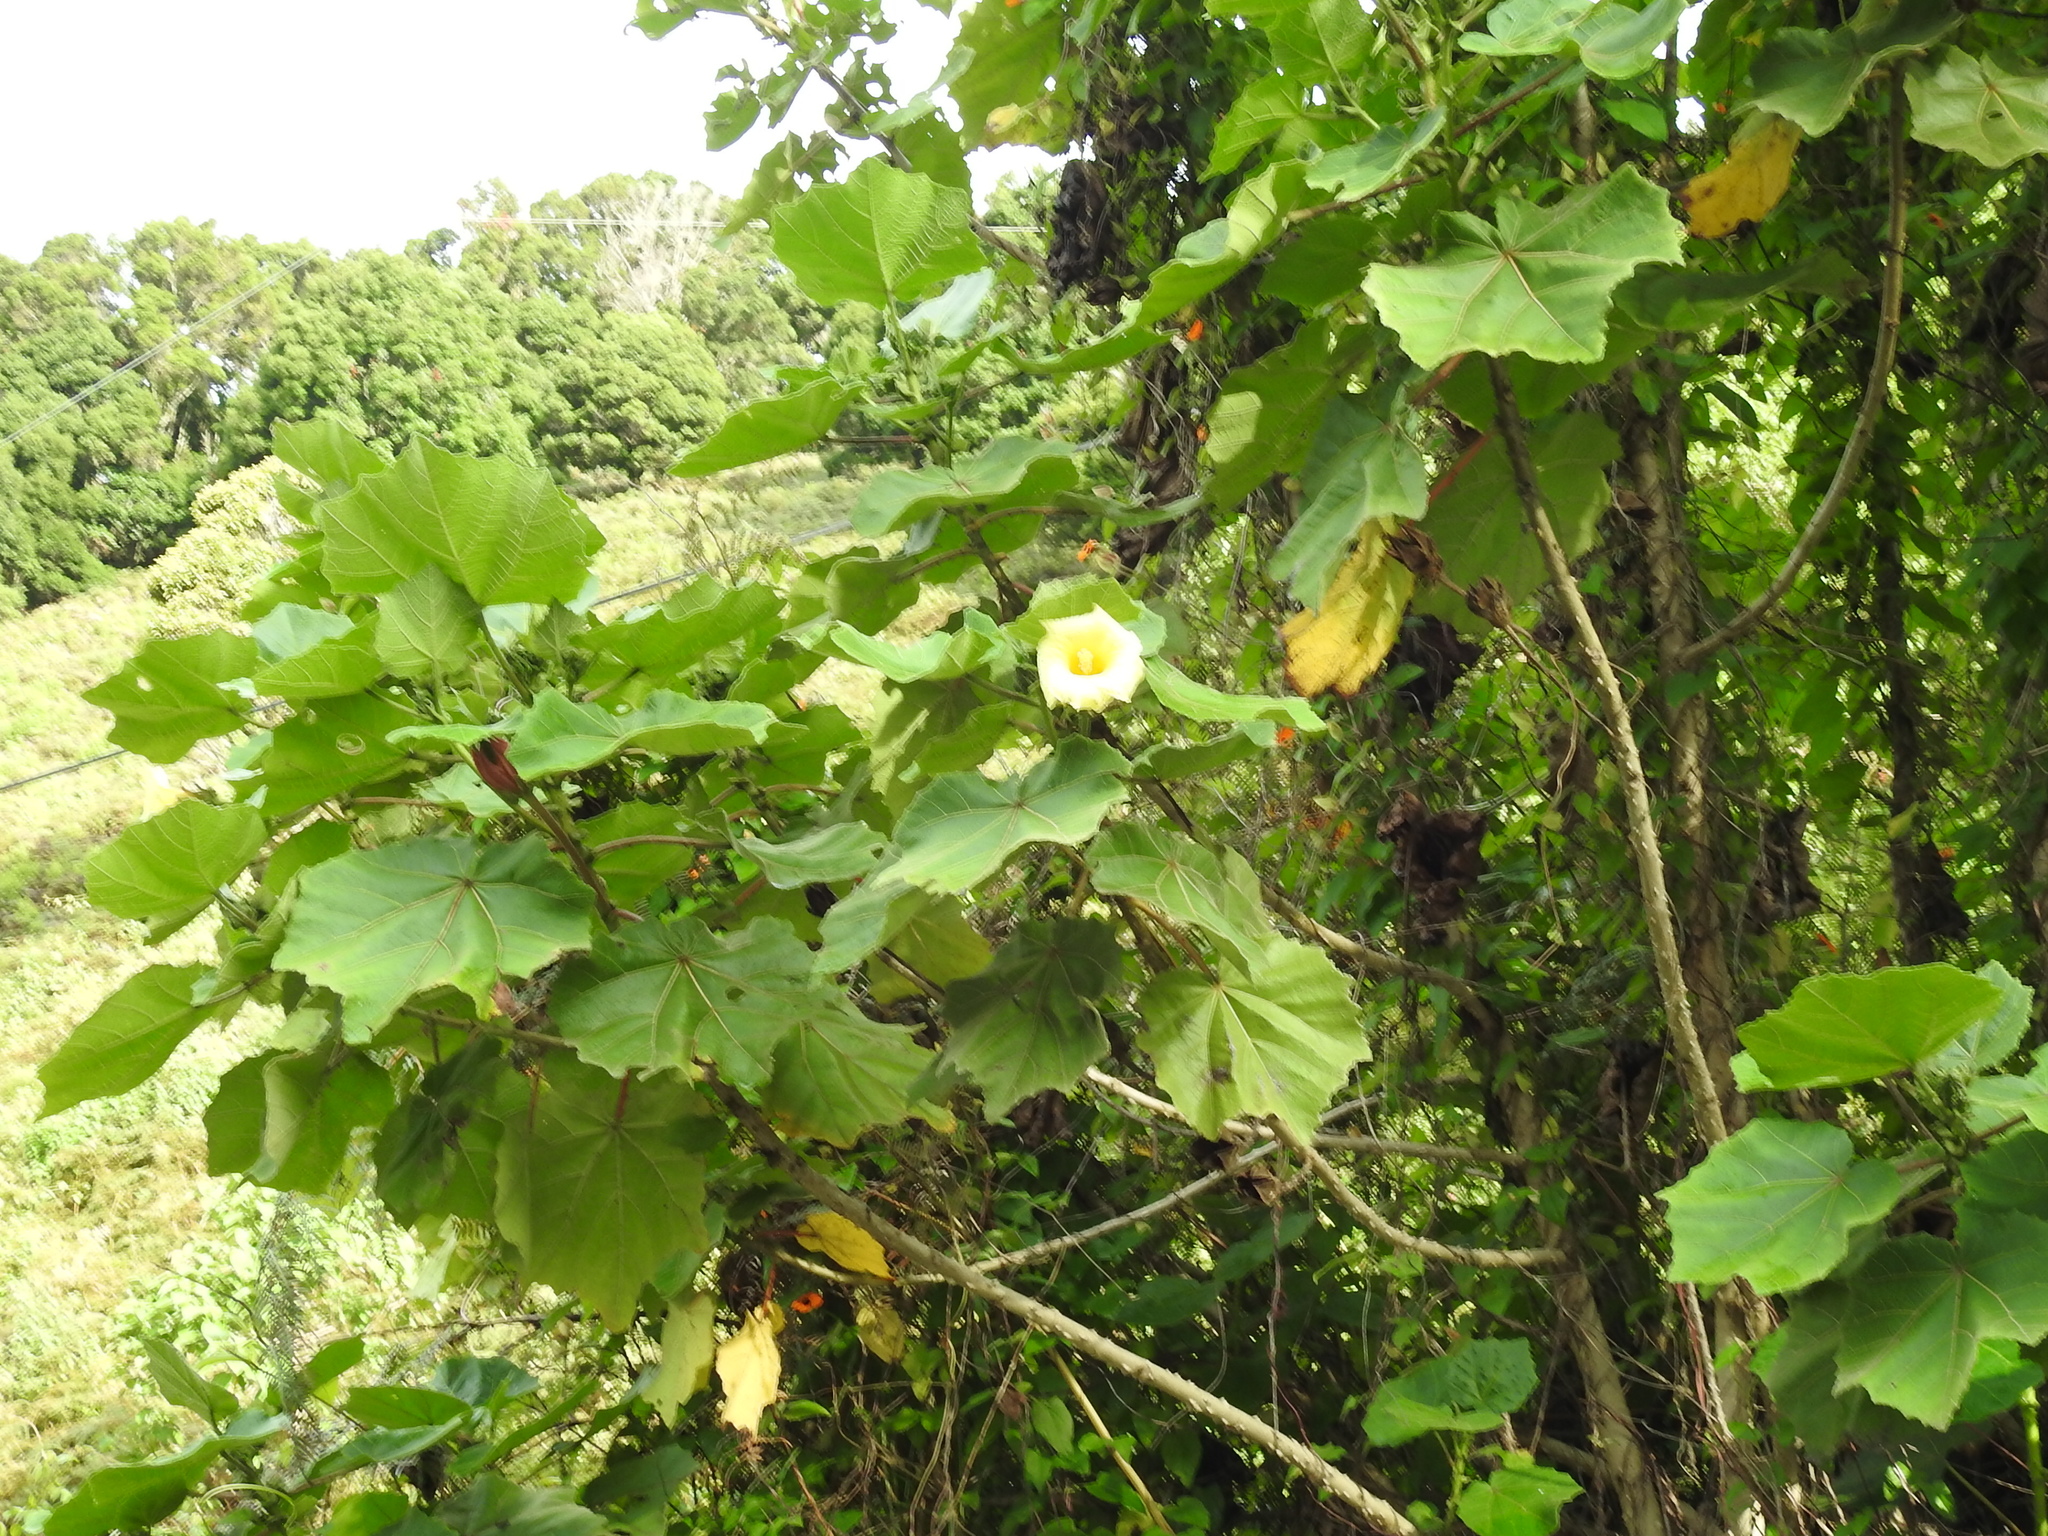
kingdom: Plantae
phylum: Tracheophyta
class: Magnoliopsida
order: Malvales
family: Malvaceae
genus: Wercklea
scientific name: Wercklea woodsonii
